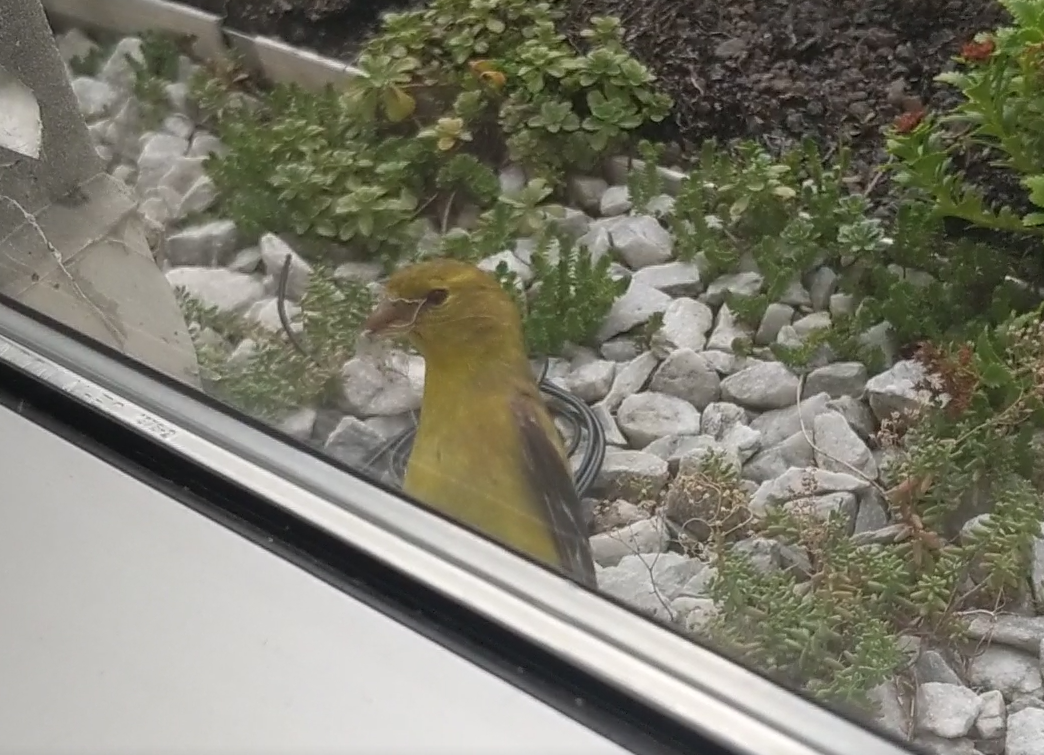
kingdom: Animalia
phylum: Chordata
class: Aves
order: Passeriformes
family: Cardinalidae
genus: Piranga
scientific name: Piranga olivacea
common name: Scarlet tanager
